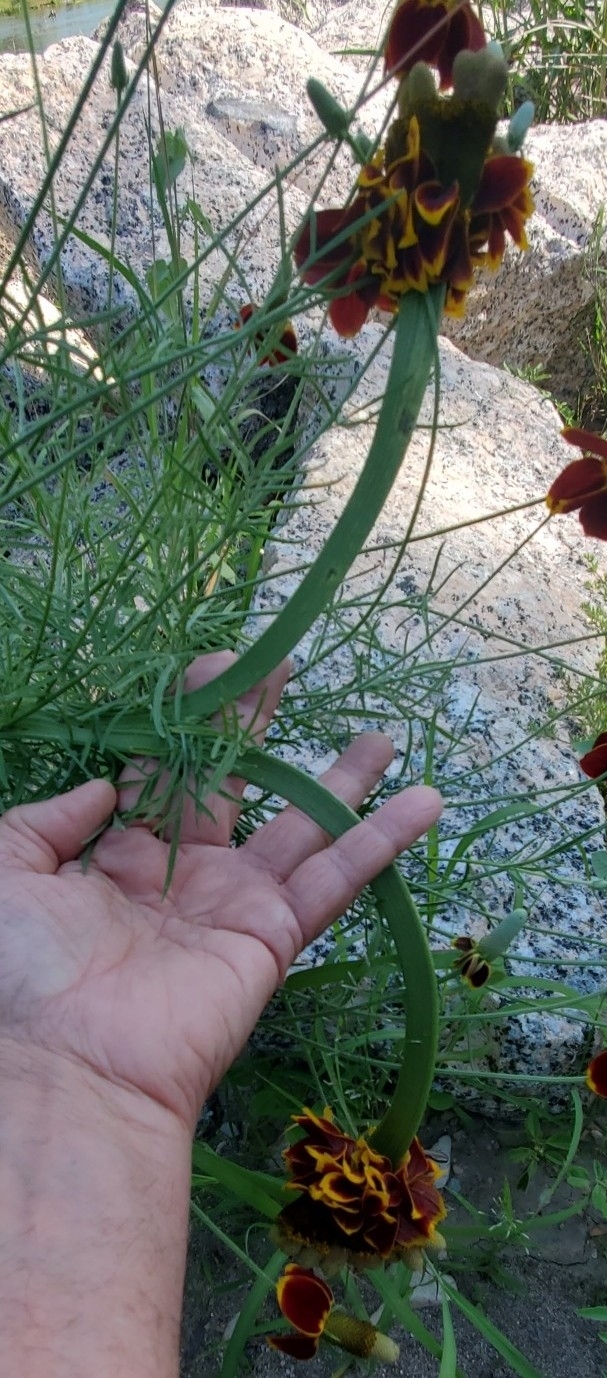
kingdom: Plantae
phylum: Tracheophyta
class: Magnoliopsida
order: Asterales
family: Asteraceae
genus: Ratibida
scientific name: Ratibida columnifera
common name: Prairie coneflower
